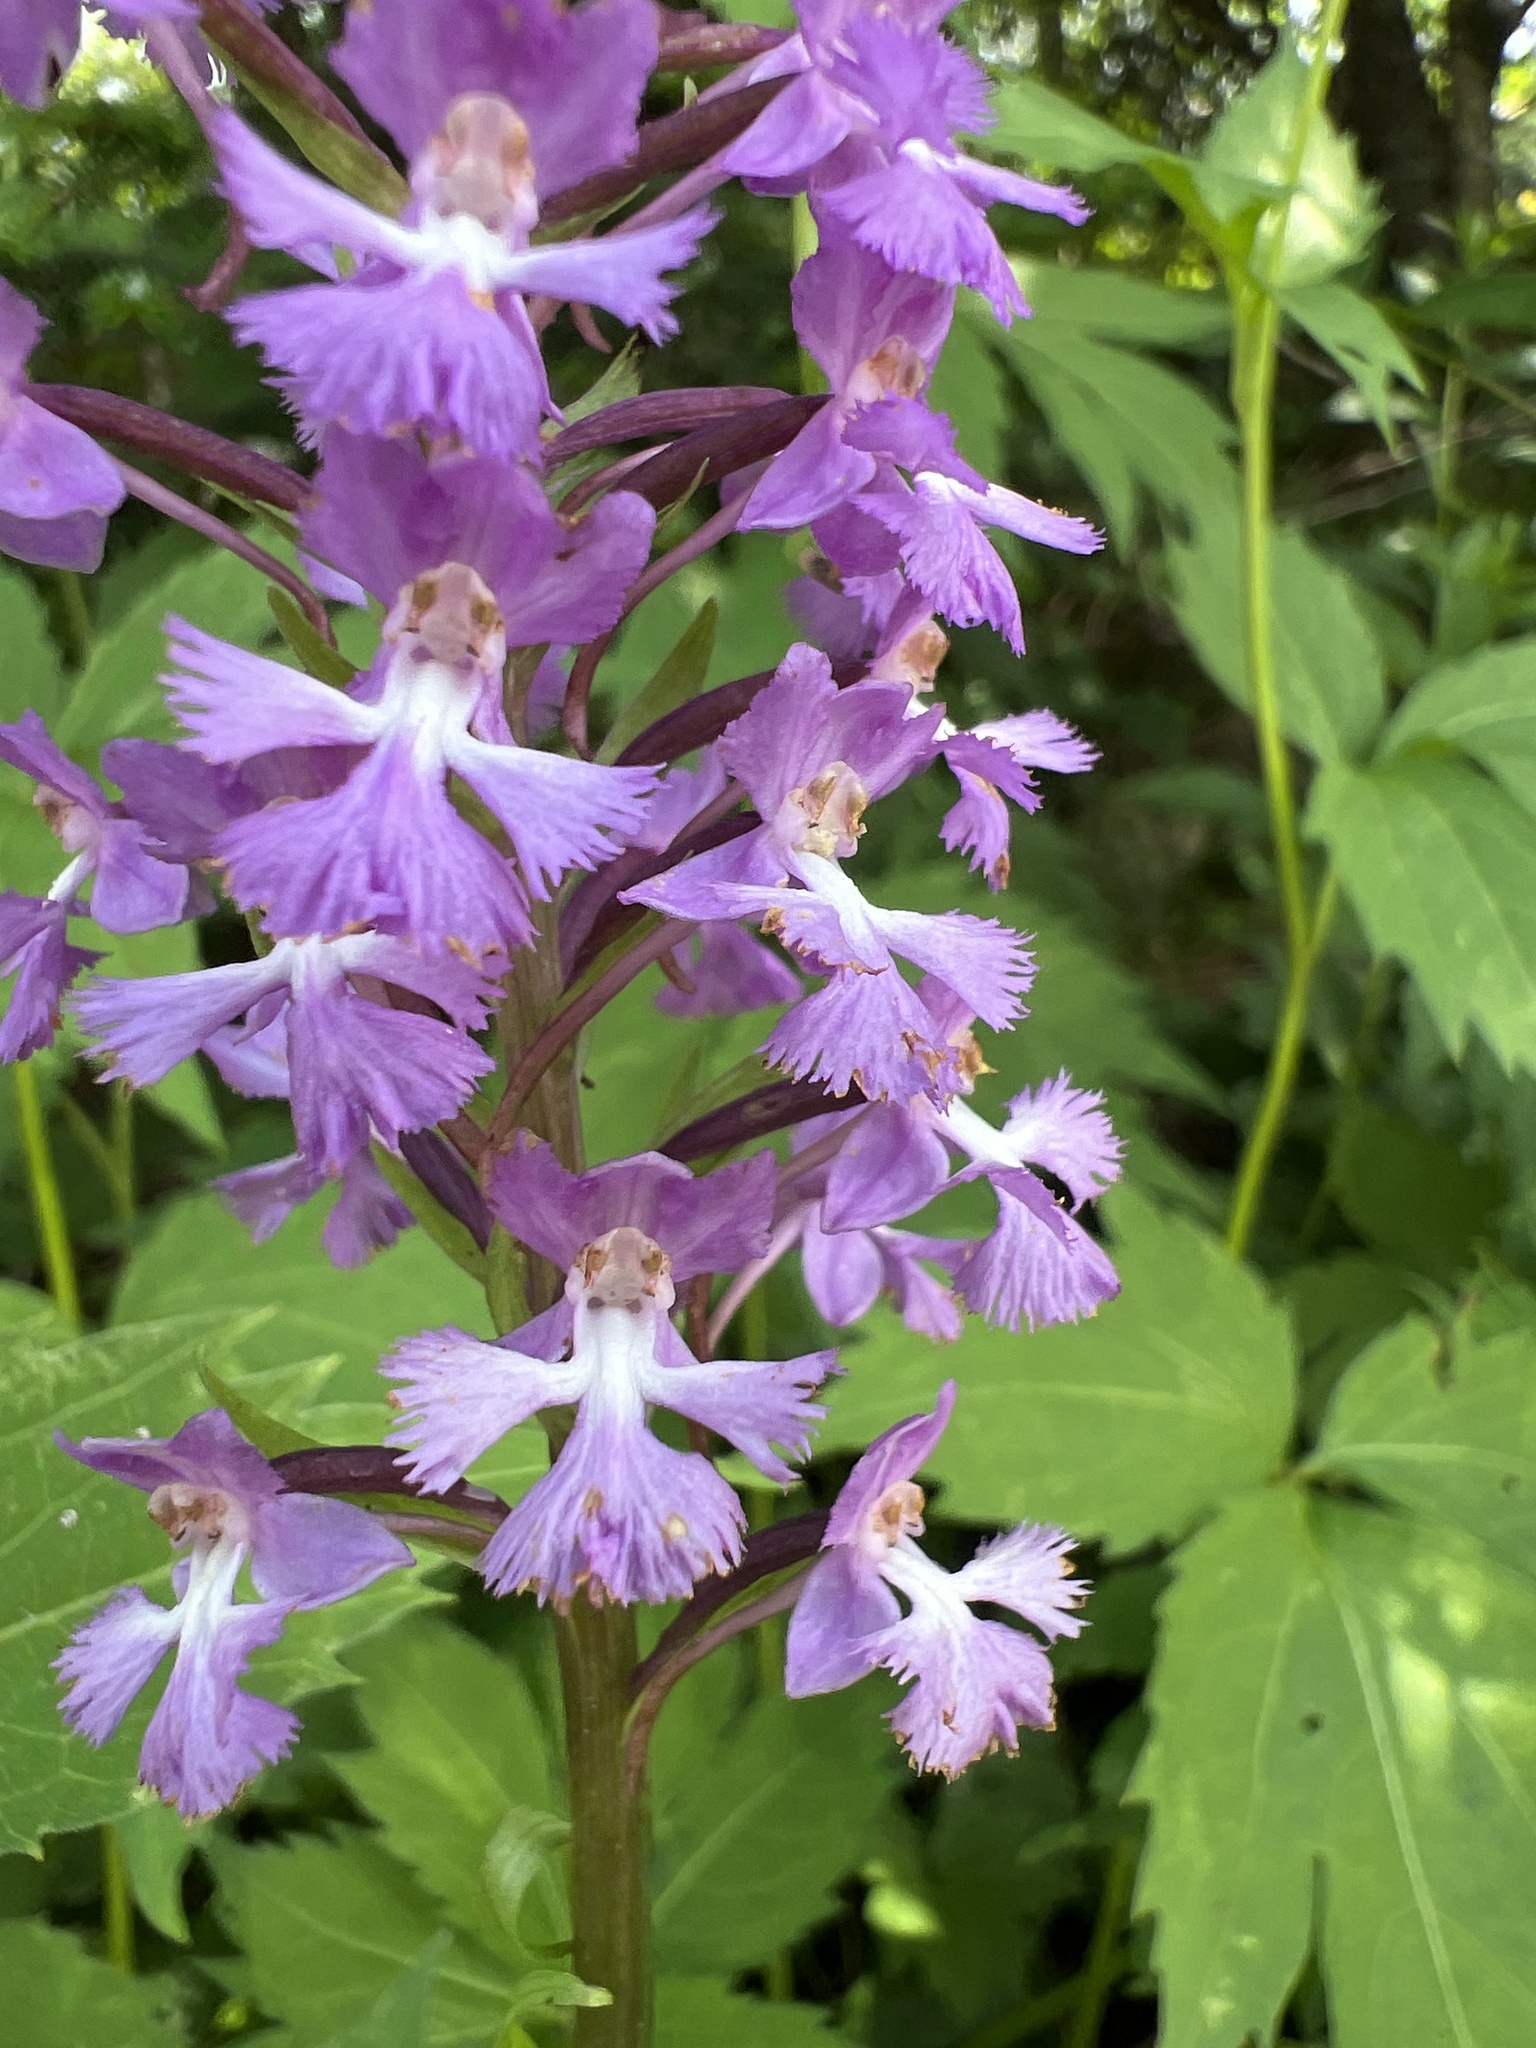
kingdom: Plantae
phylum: Tracheophyta
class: Liliopsida
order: Asparagales
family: Orchidaceae
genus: Platanthera
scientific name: Platanthera psycodes
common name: Lesser purple fringed orchid
